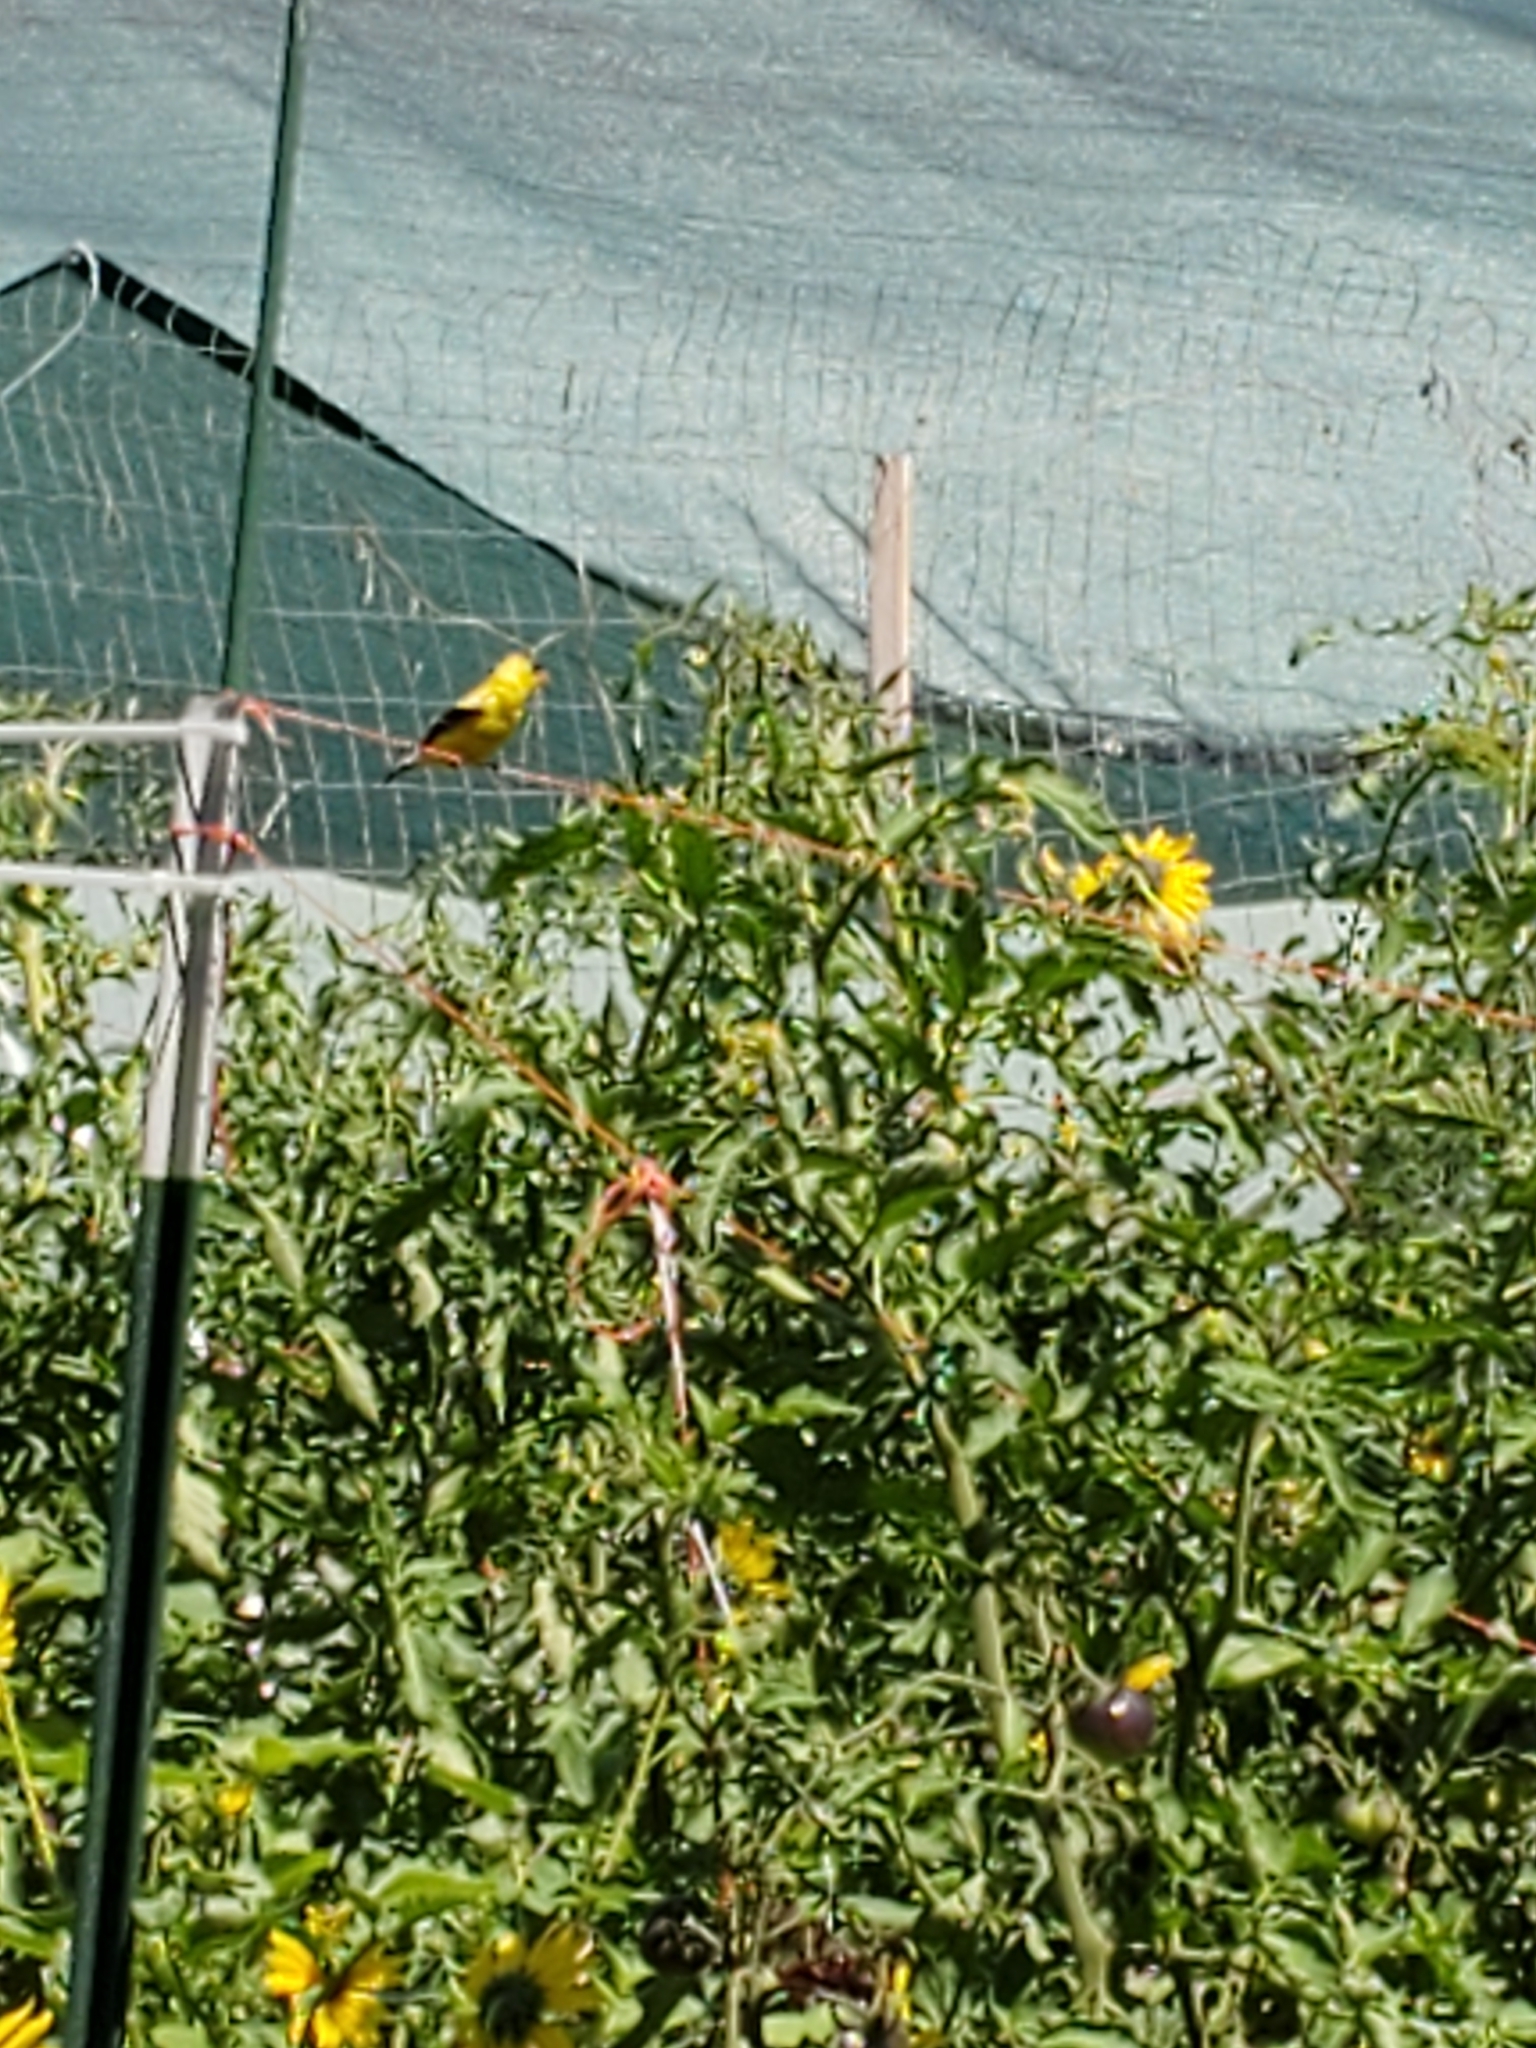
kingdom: Animalia
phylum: Chordata
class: Aves
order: Passeriformes
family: Fringillidae
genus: Spinus
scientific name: Spinus tristis
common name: American goldfinch
